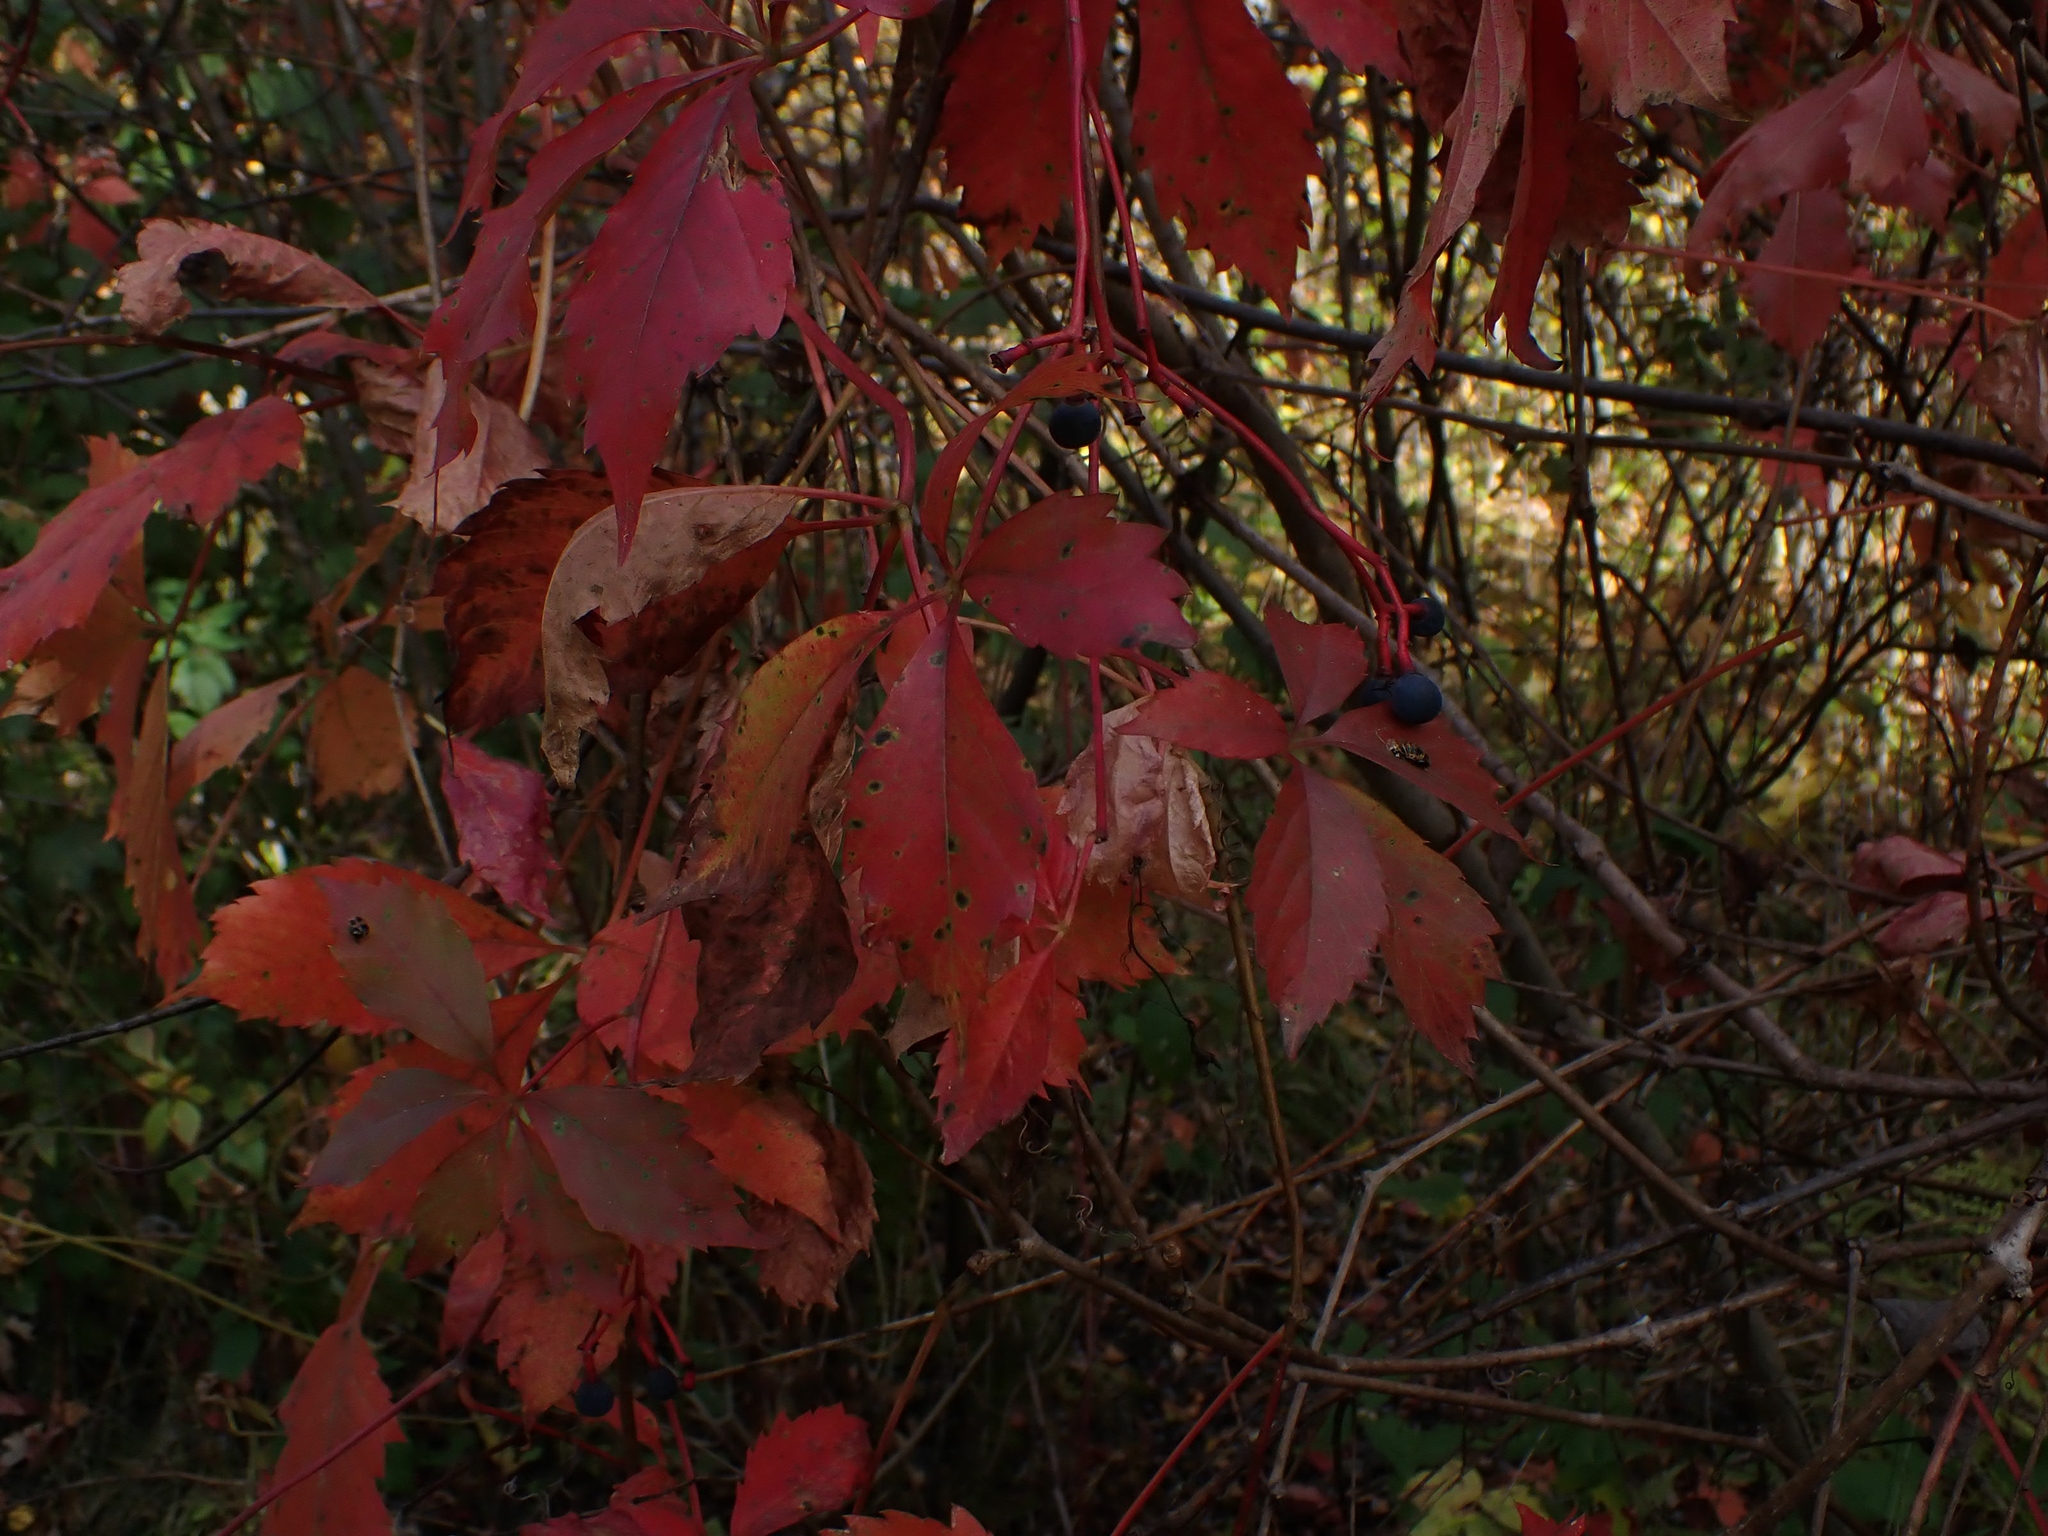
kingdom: Plantae
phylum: Tracheophyta
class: Magnoliopsida
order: Vitales
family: Vitaceae
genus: Parthenocissus
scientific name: Parthenocissus inserta
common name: False virginia-creeper
